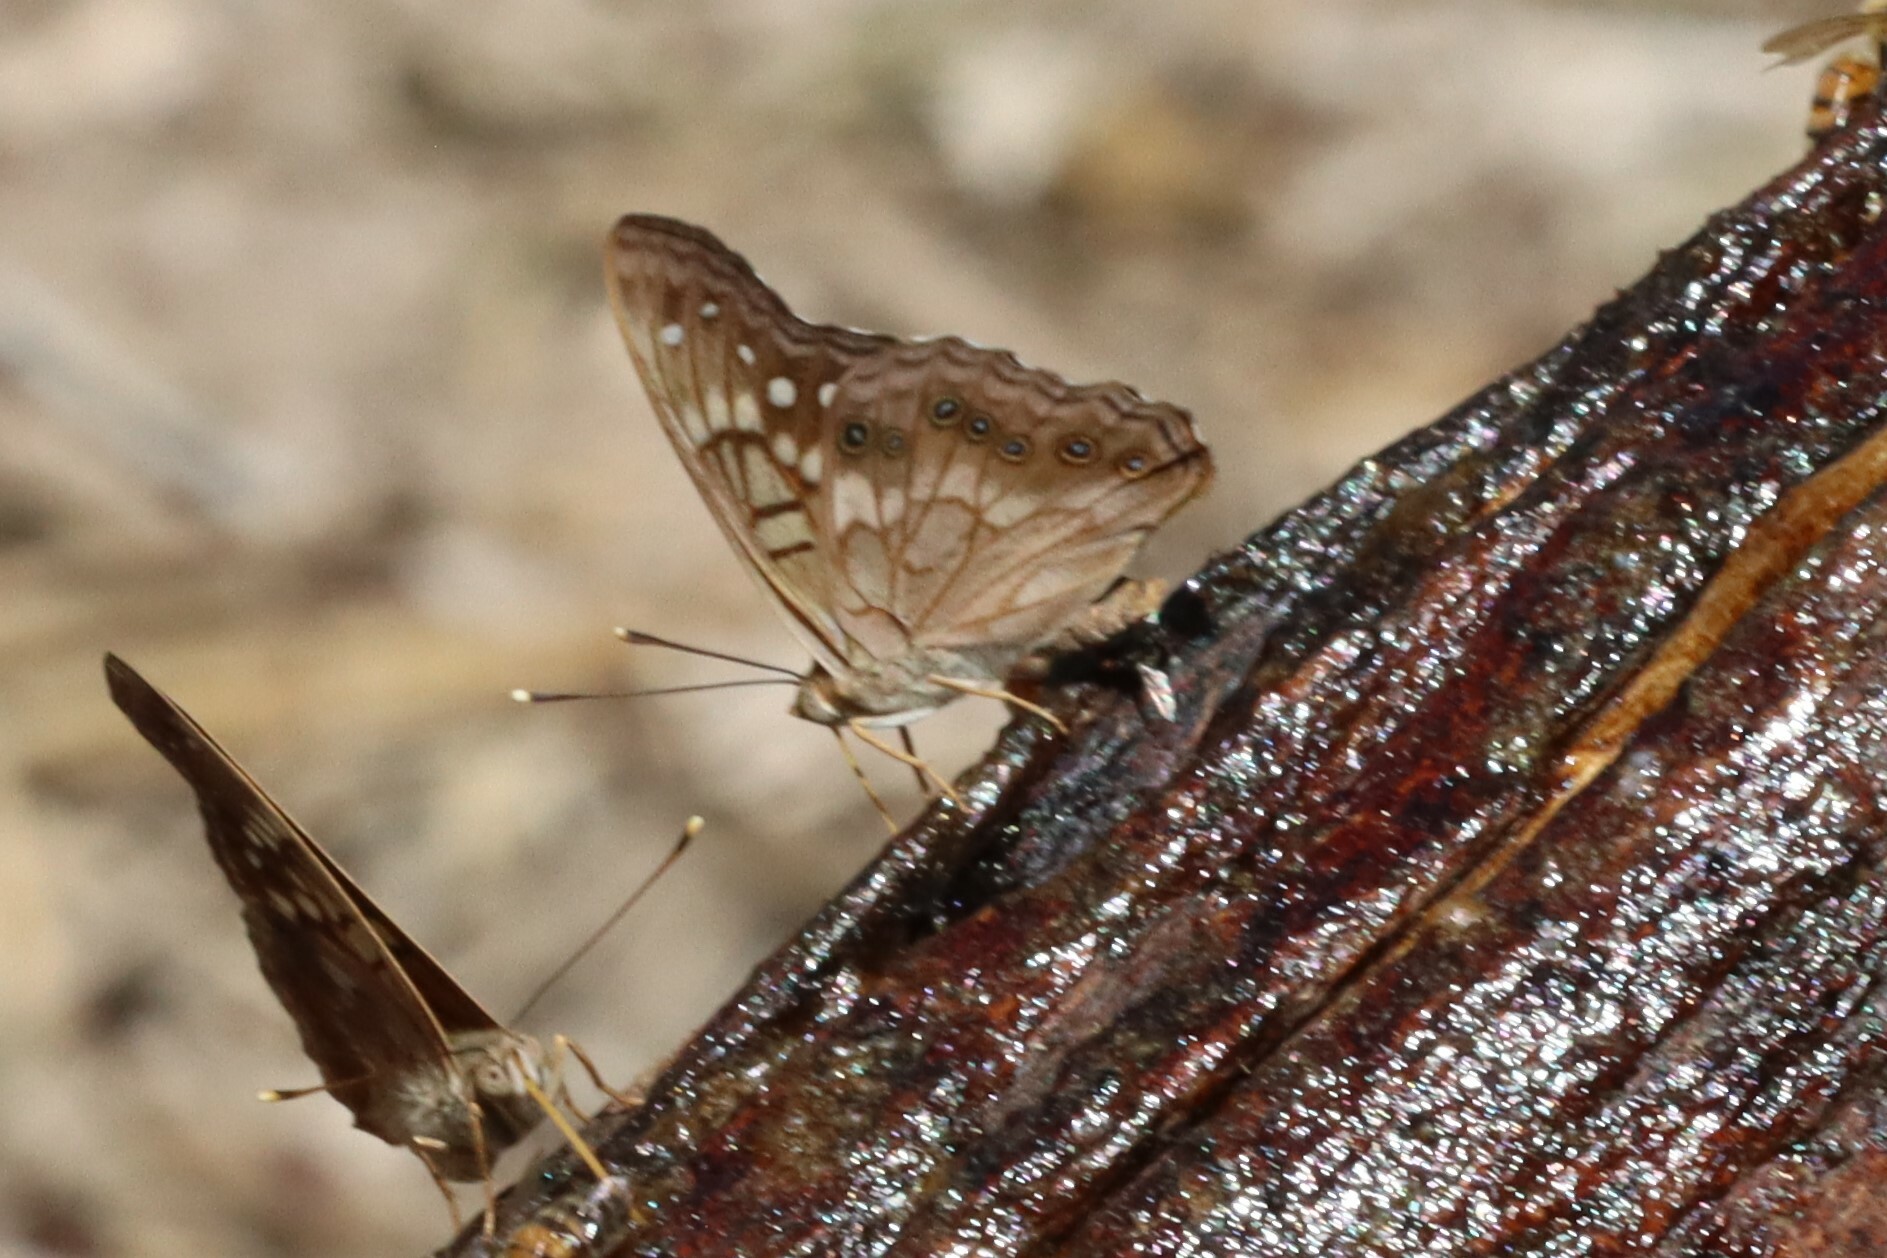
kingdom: Animalia
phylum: Arthropoda
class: Insecta
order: Lepidoptera
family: Nymphalidae
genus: Asterocampa
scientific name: Asterocampa clyton
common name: Tawny emperor
